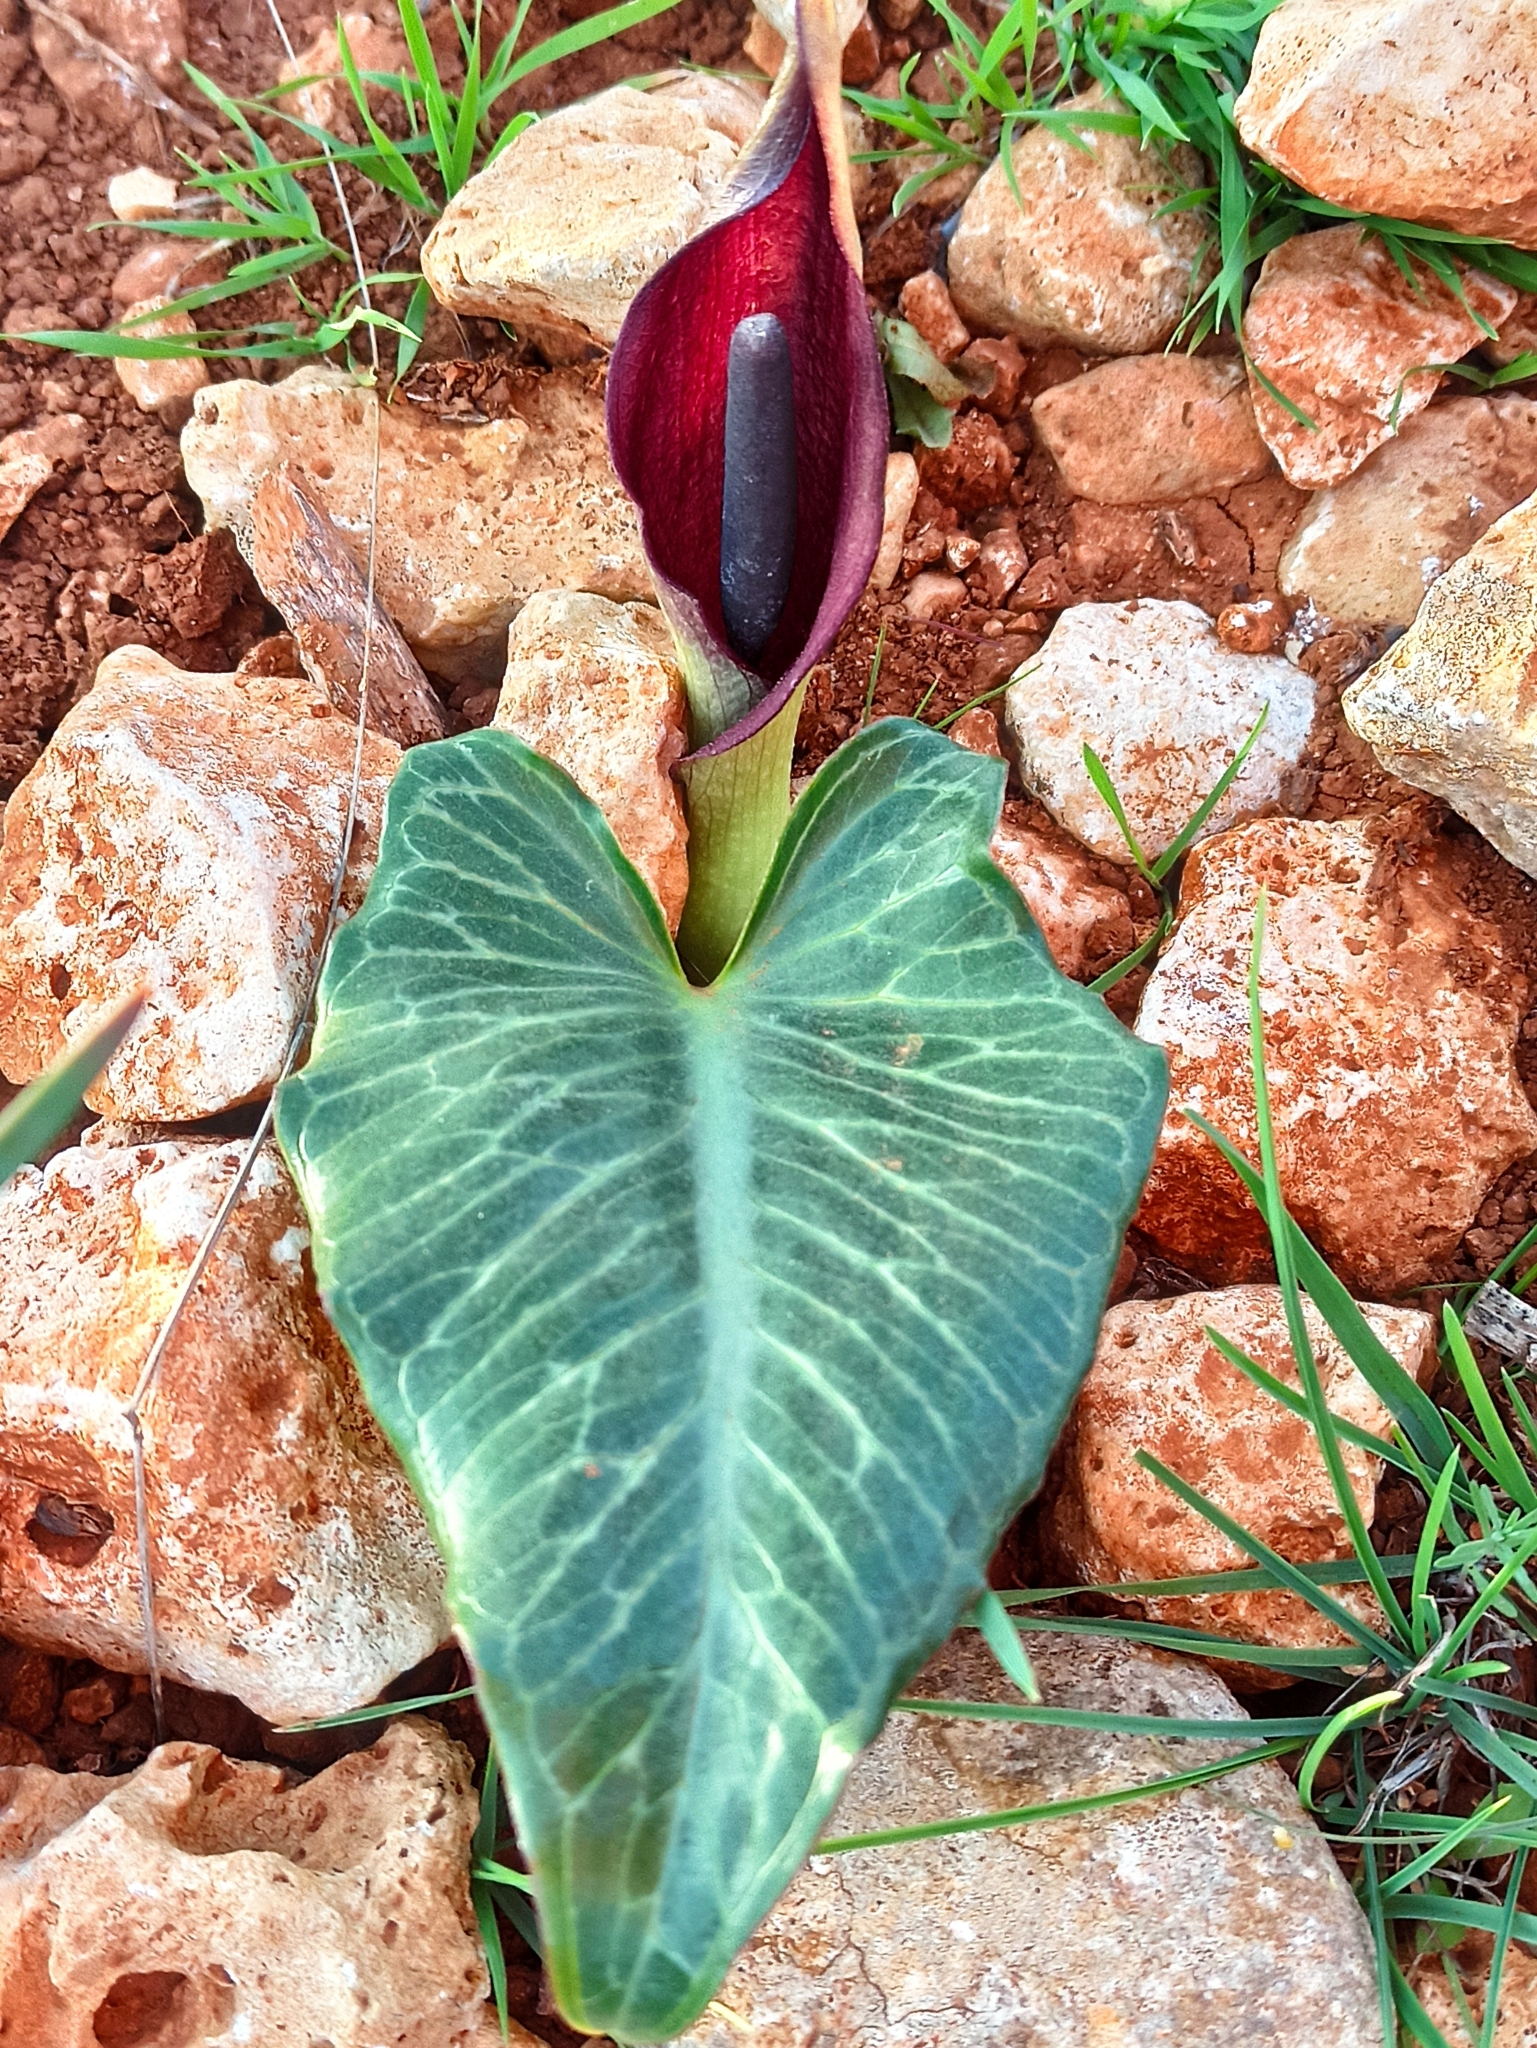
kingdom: Plantae
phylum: Tracheophyta
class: Liliopsida
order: Alismatales
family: Araceae
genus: Arum
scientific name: Arum pictum
